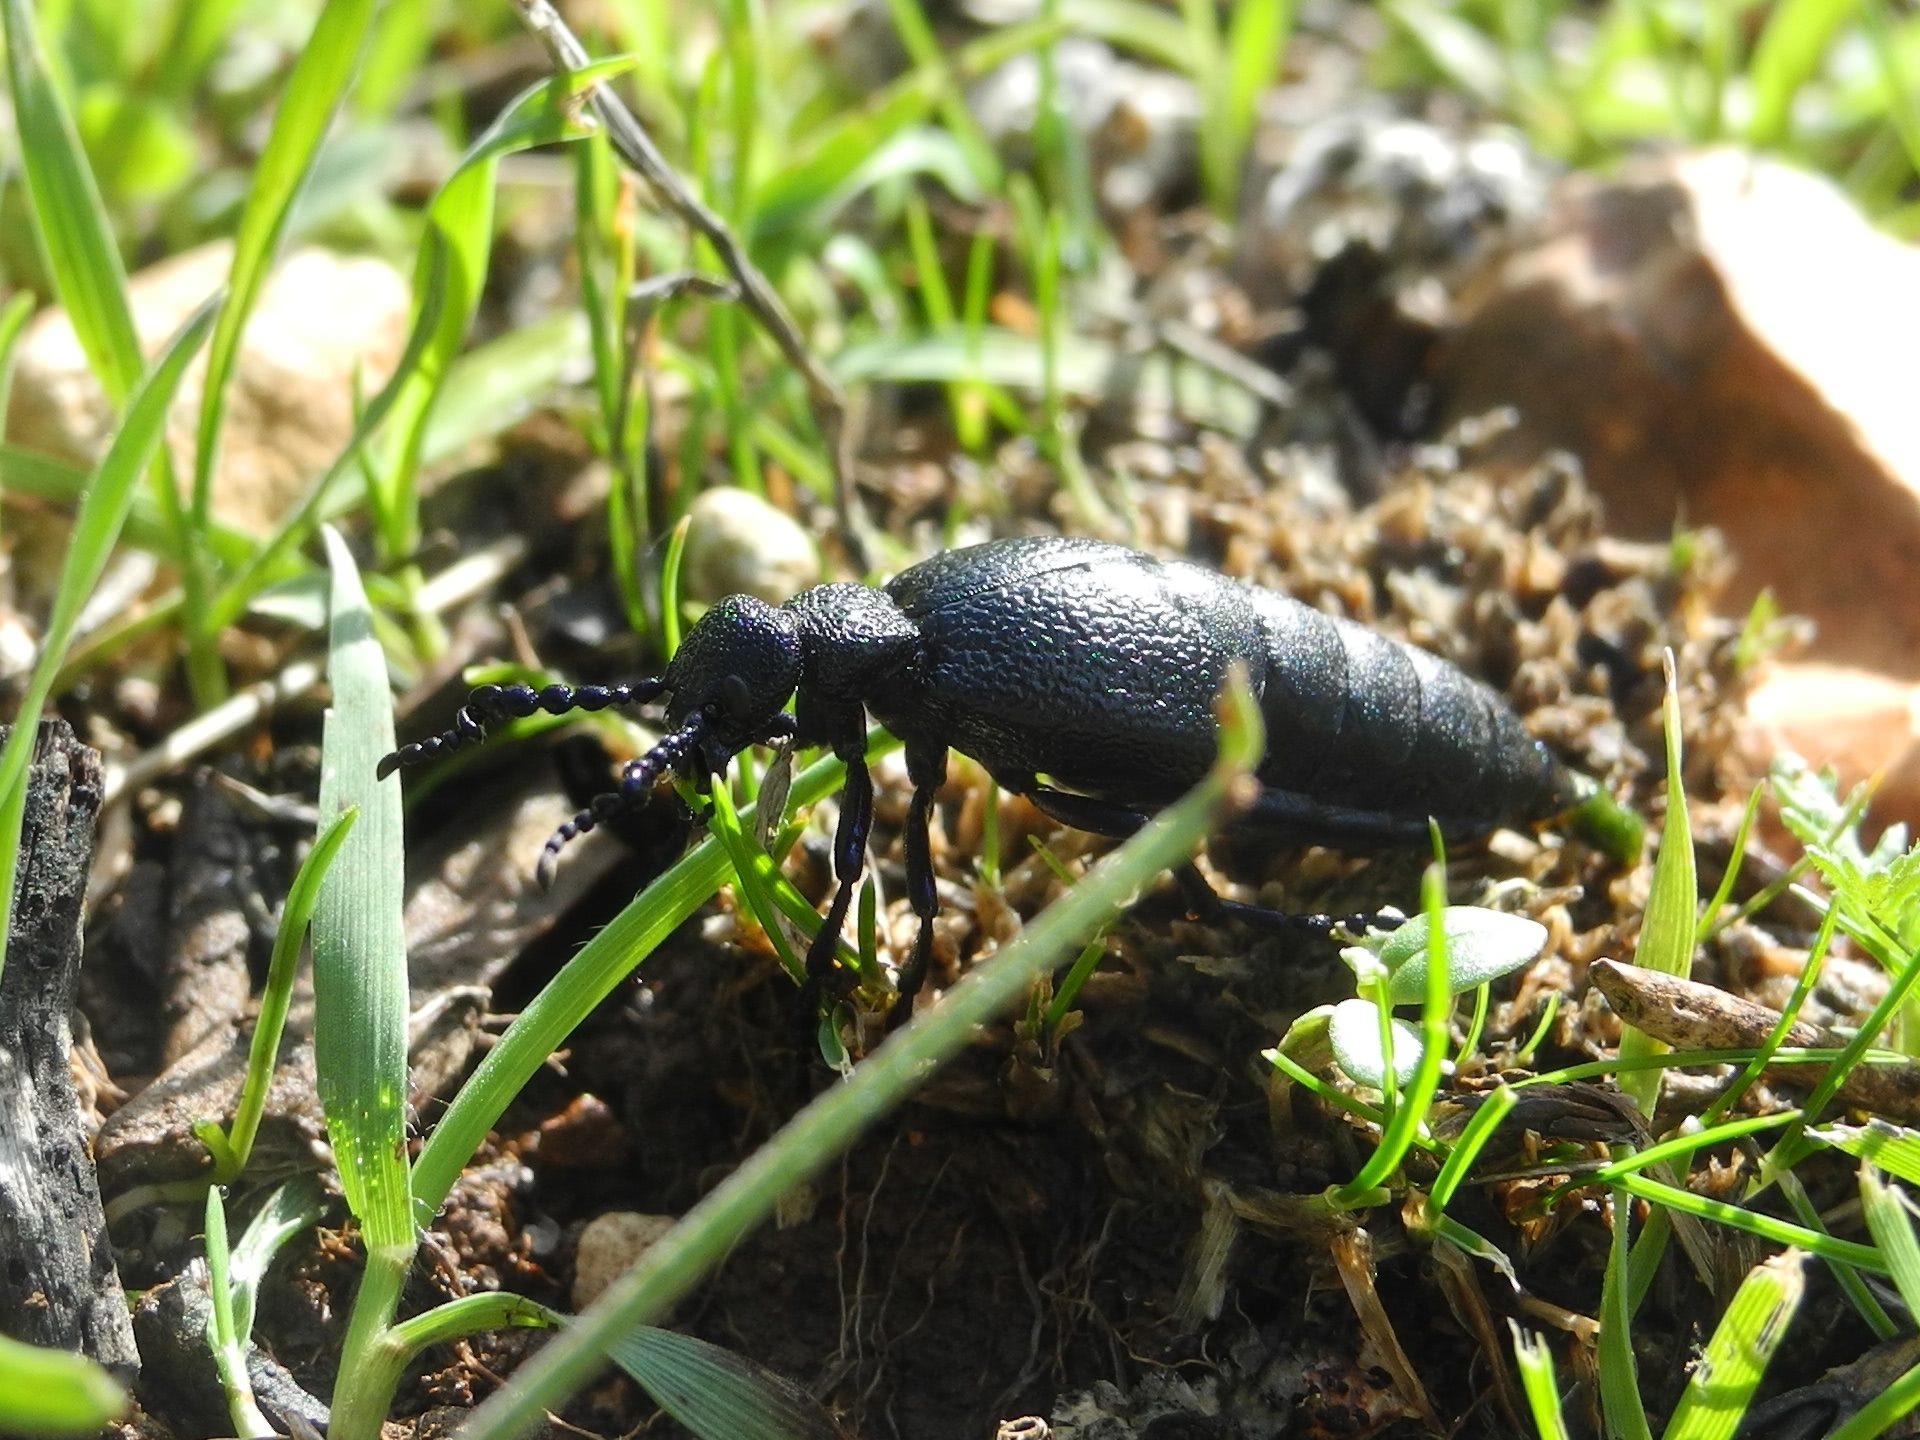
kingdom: Animalia
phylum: Arthropoda
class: Insecta
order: Coleoptera
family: Meloidae
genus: Meloe
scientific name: Meloe proscarabaeus
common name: Black oil-beetle
